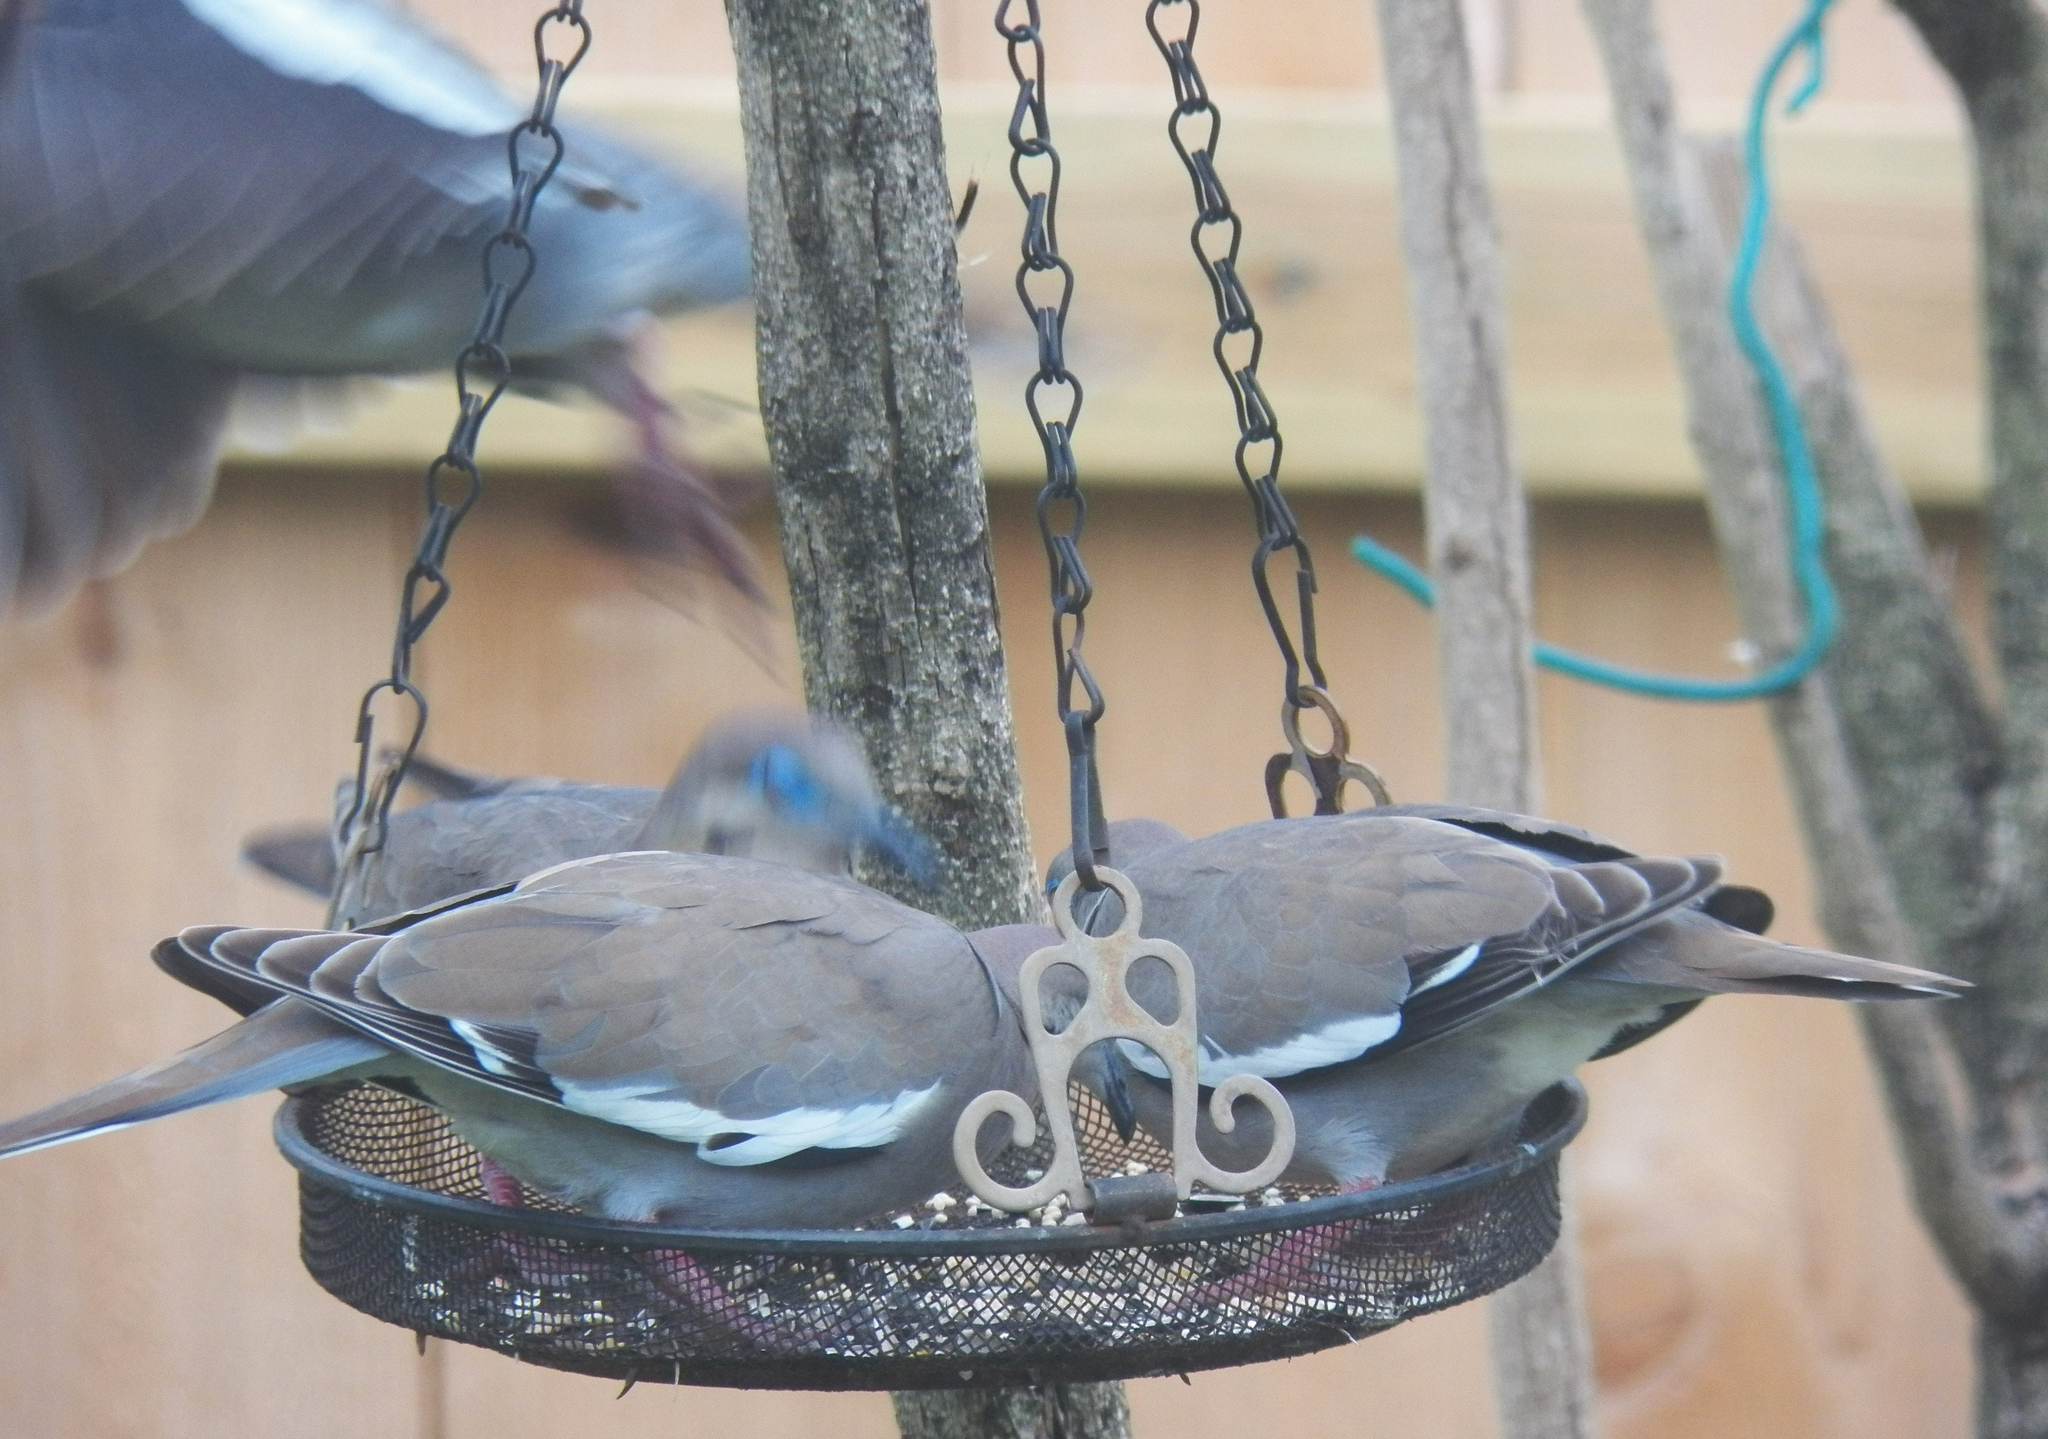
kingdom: Animalia
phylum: Chordata
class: Aves
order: Columbiformes
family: Columbidae
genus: Zenaida
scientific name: Zenaida asiatica
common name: White-winged dove
